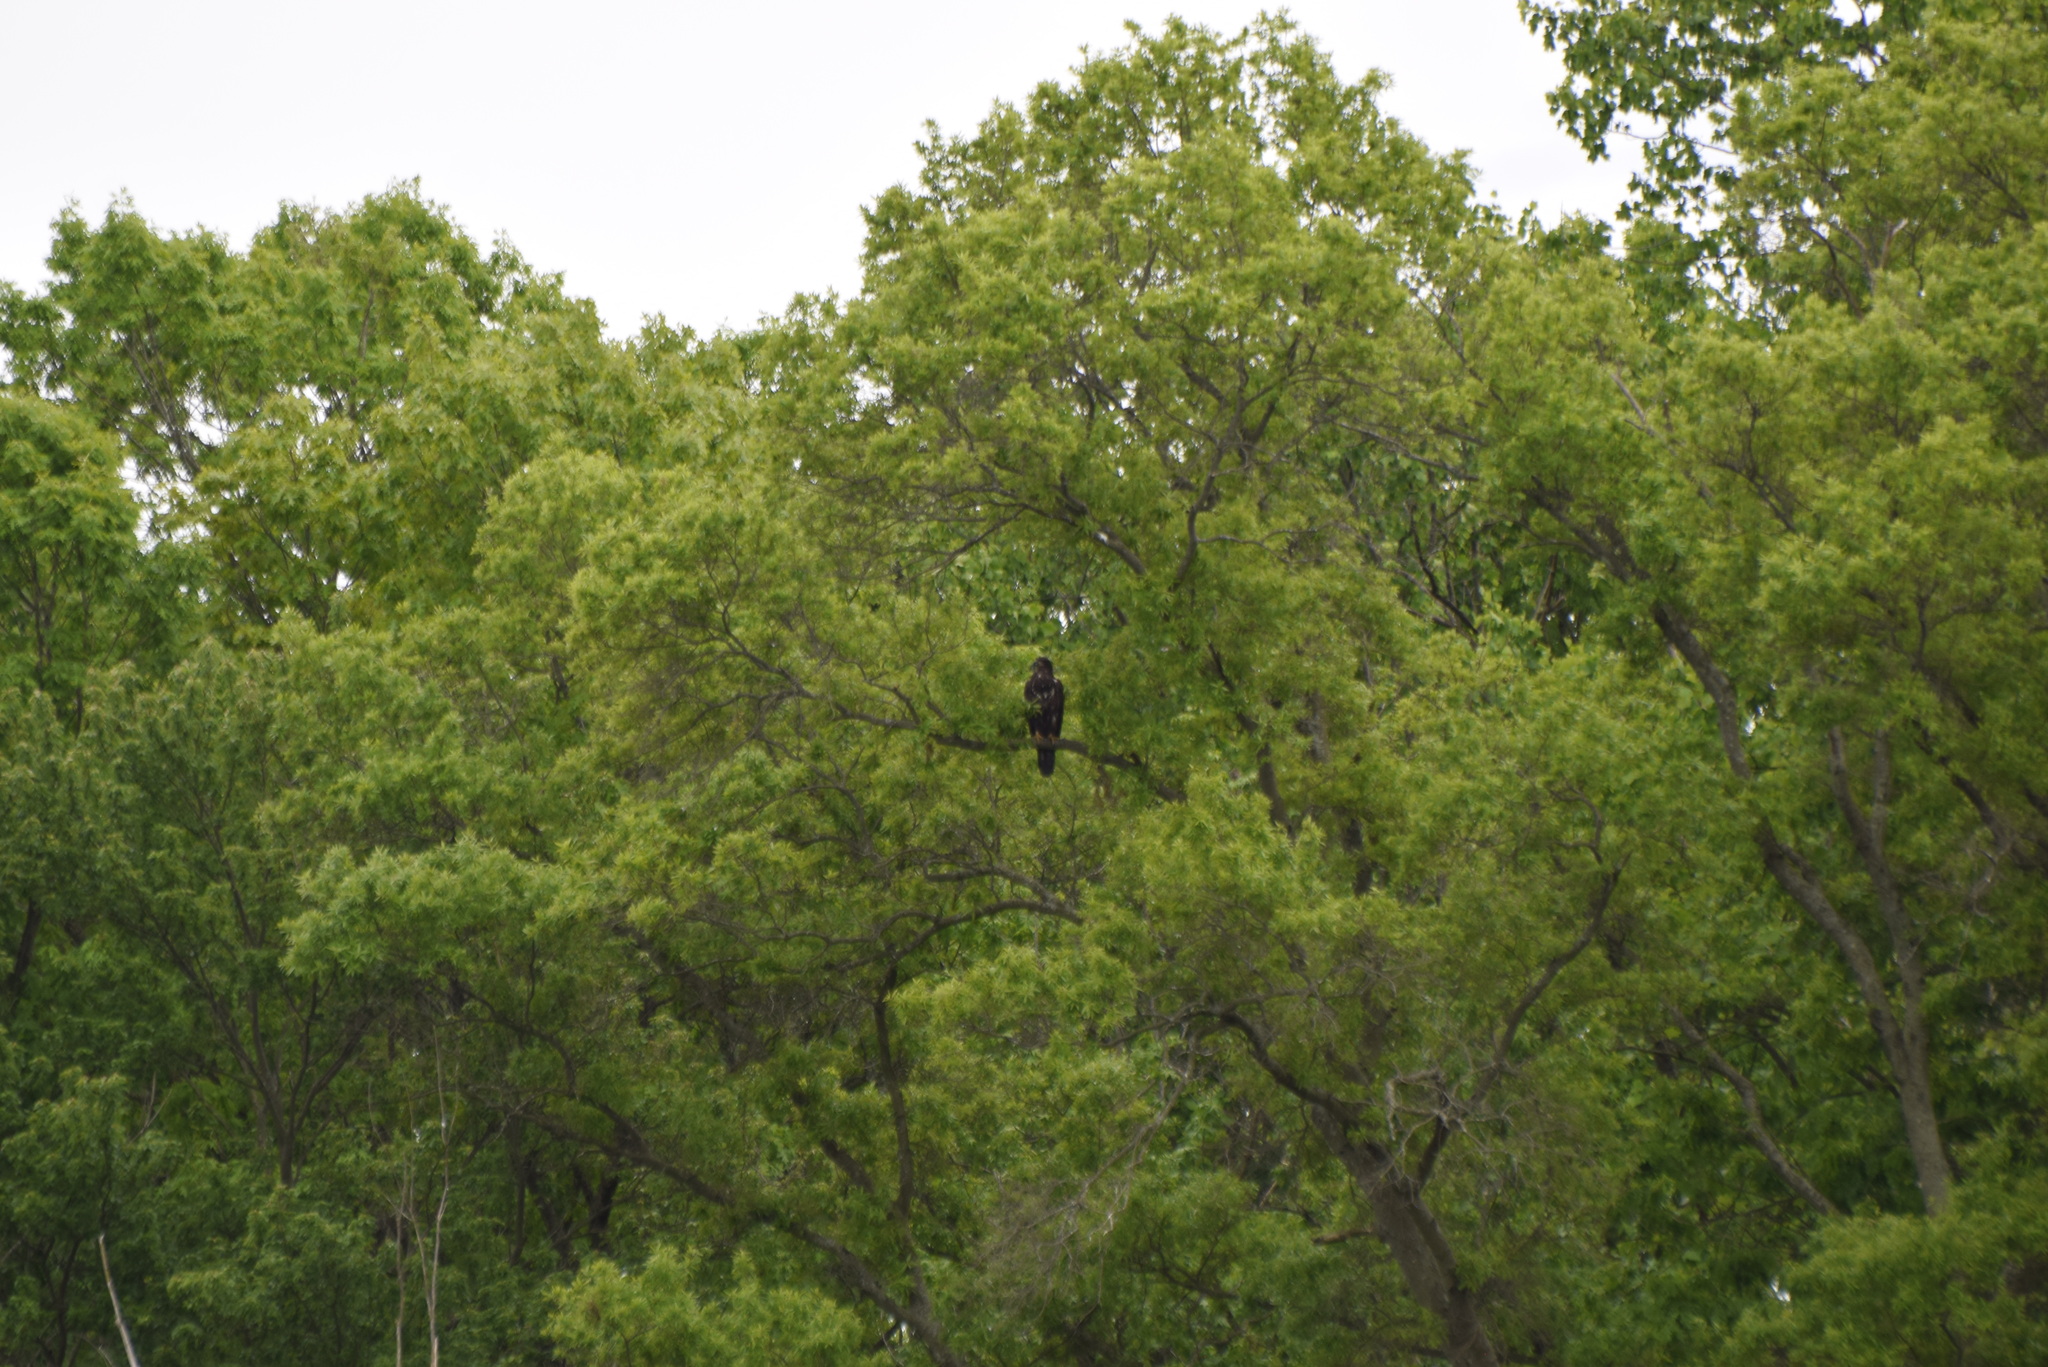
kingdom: Animalia
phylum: Chordata
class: Aves
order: Accipitriformes
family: Accipitridae
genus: Haliaeetus
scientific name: Haliaeetus leucocephalus
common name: Bald eagle
